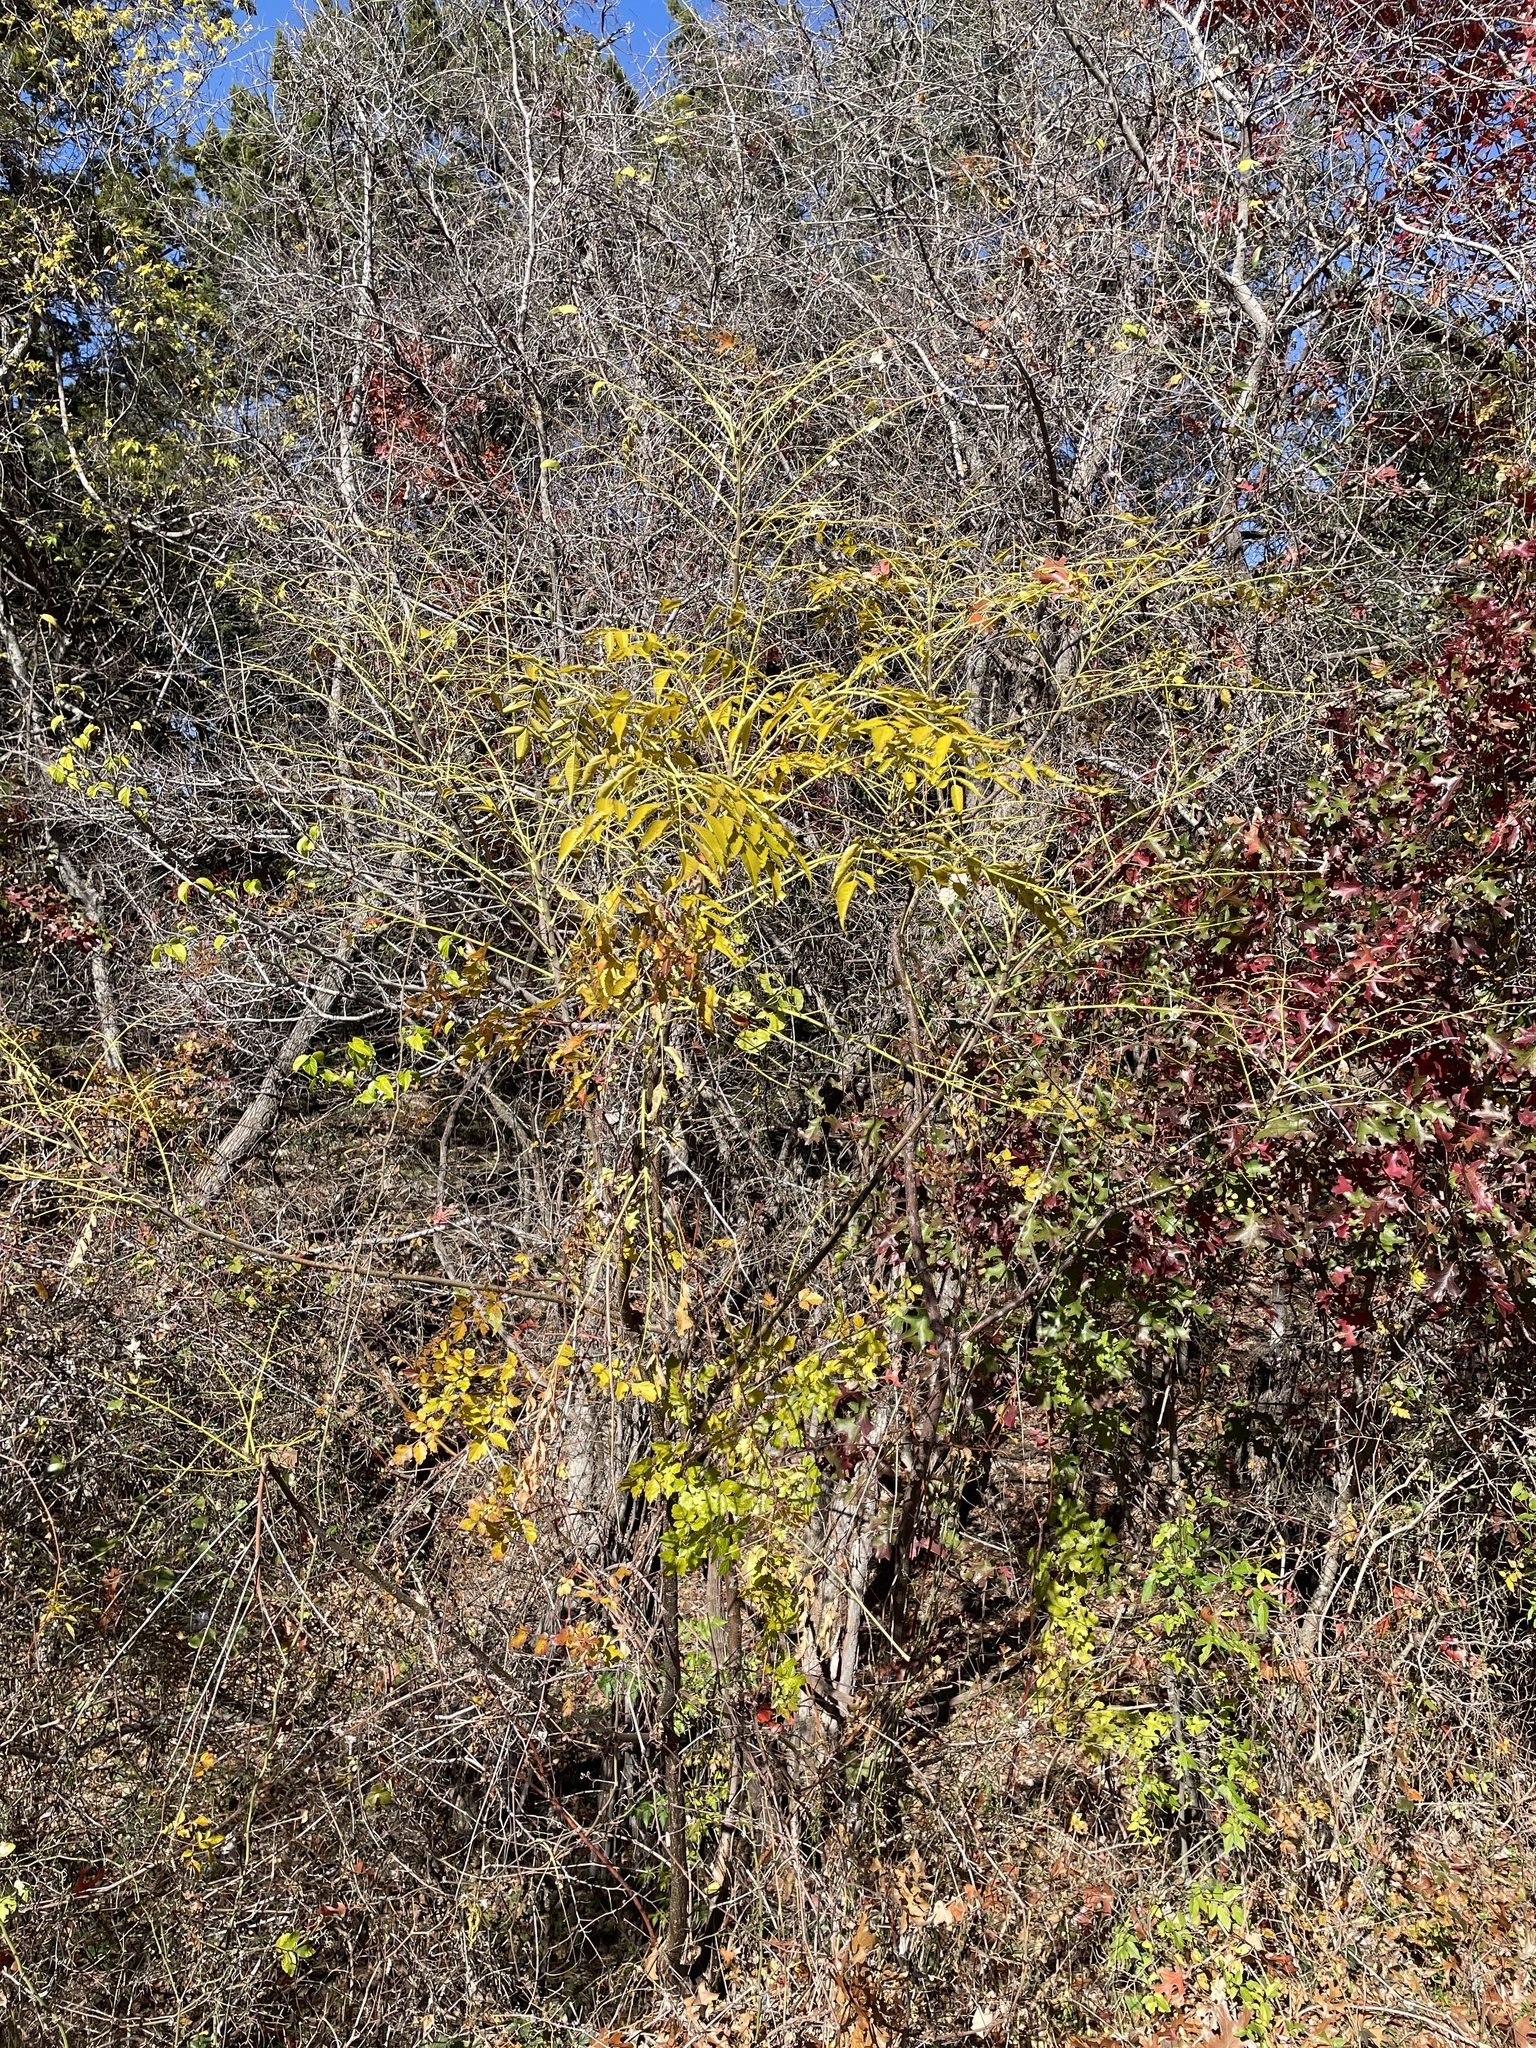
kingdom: Plantae
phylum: Tracheophyta
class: Magnoliopsida
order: Sapindales
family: Meliaceae
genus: Melia
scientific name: Melia azedarach
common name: Chinaberrytree
